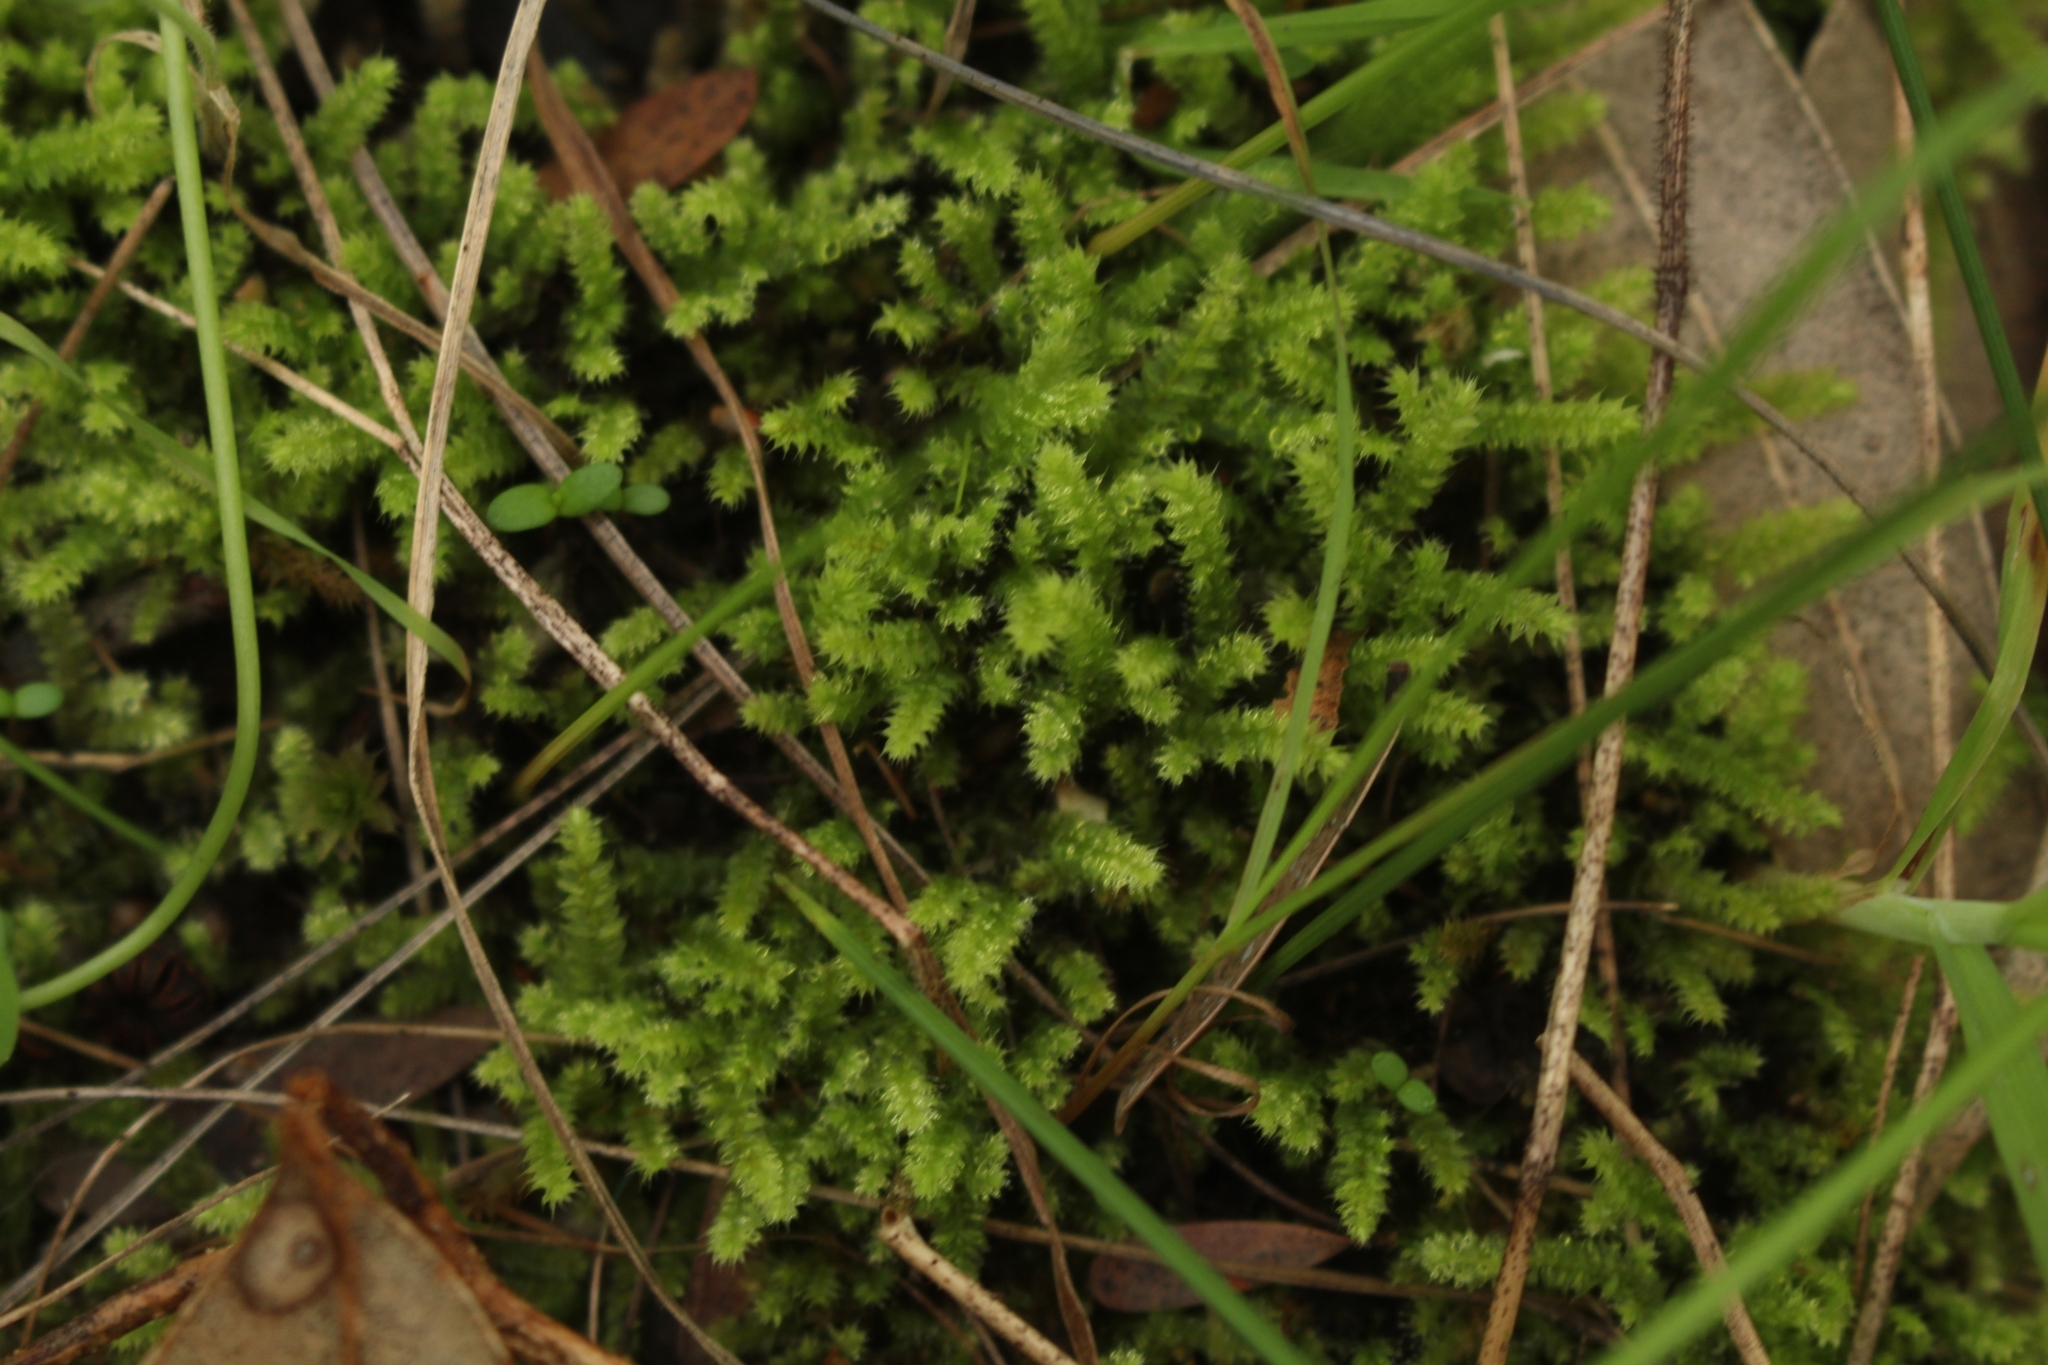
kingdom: Plantae
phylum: Bryophyta
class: Bryopsida
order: Hypnodendrales
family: Racopilaceae
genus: Racopilum
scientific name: Racopilum cuspidigerum
